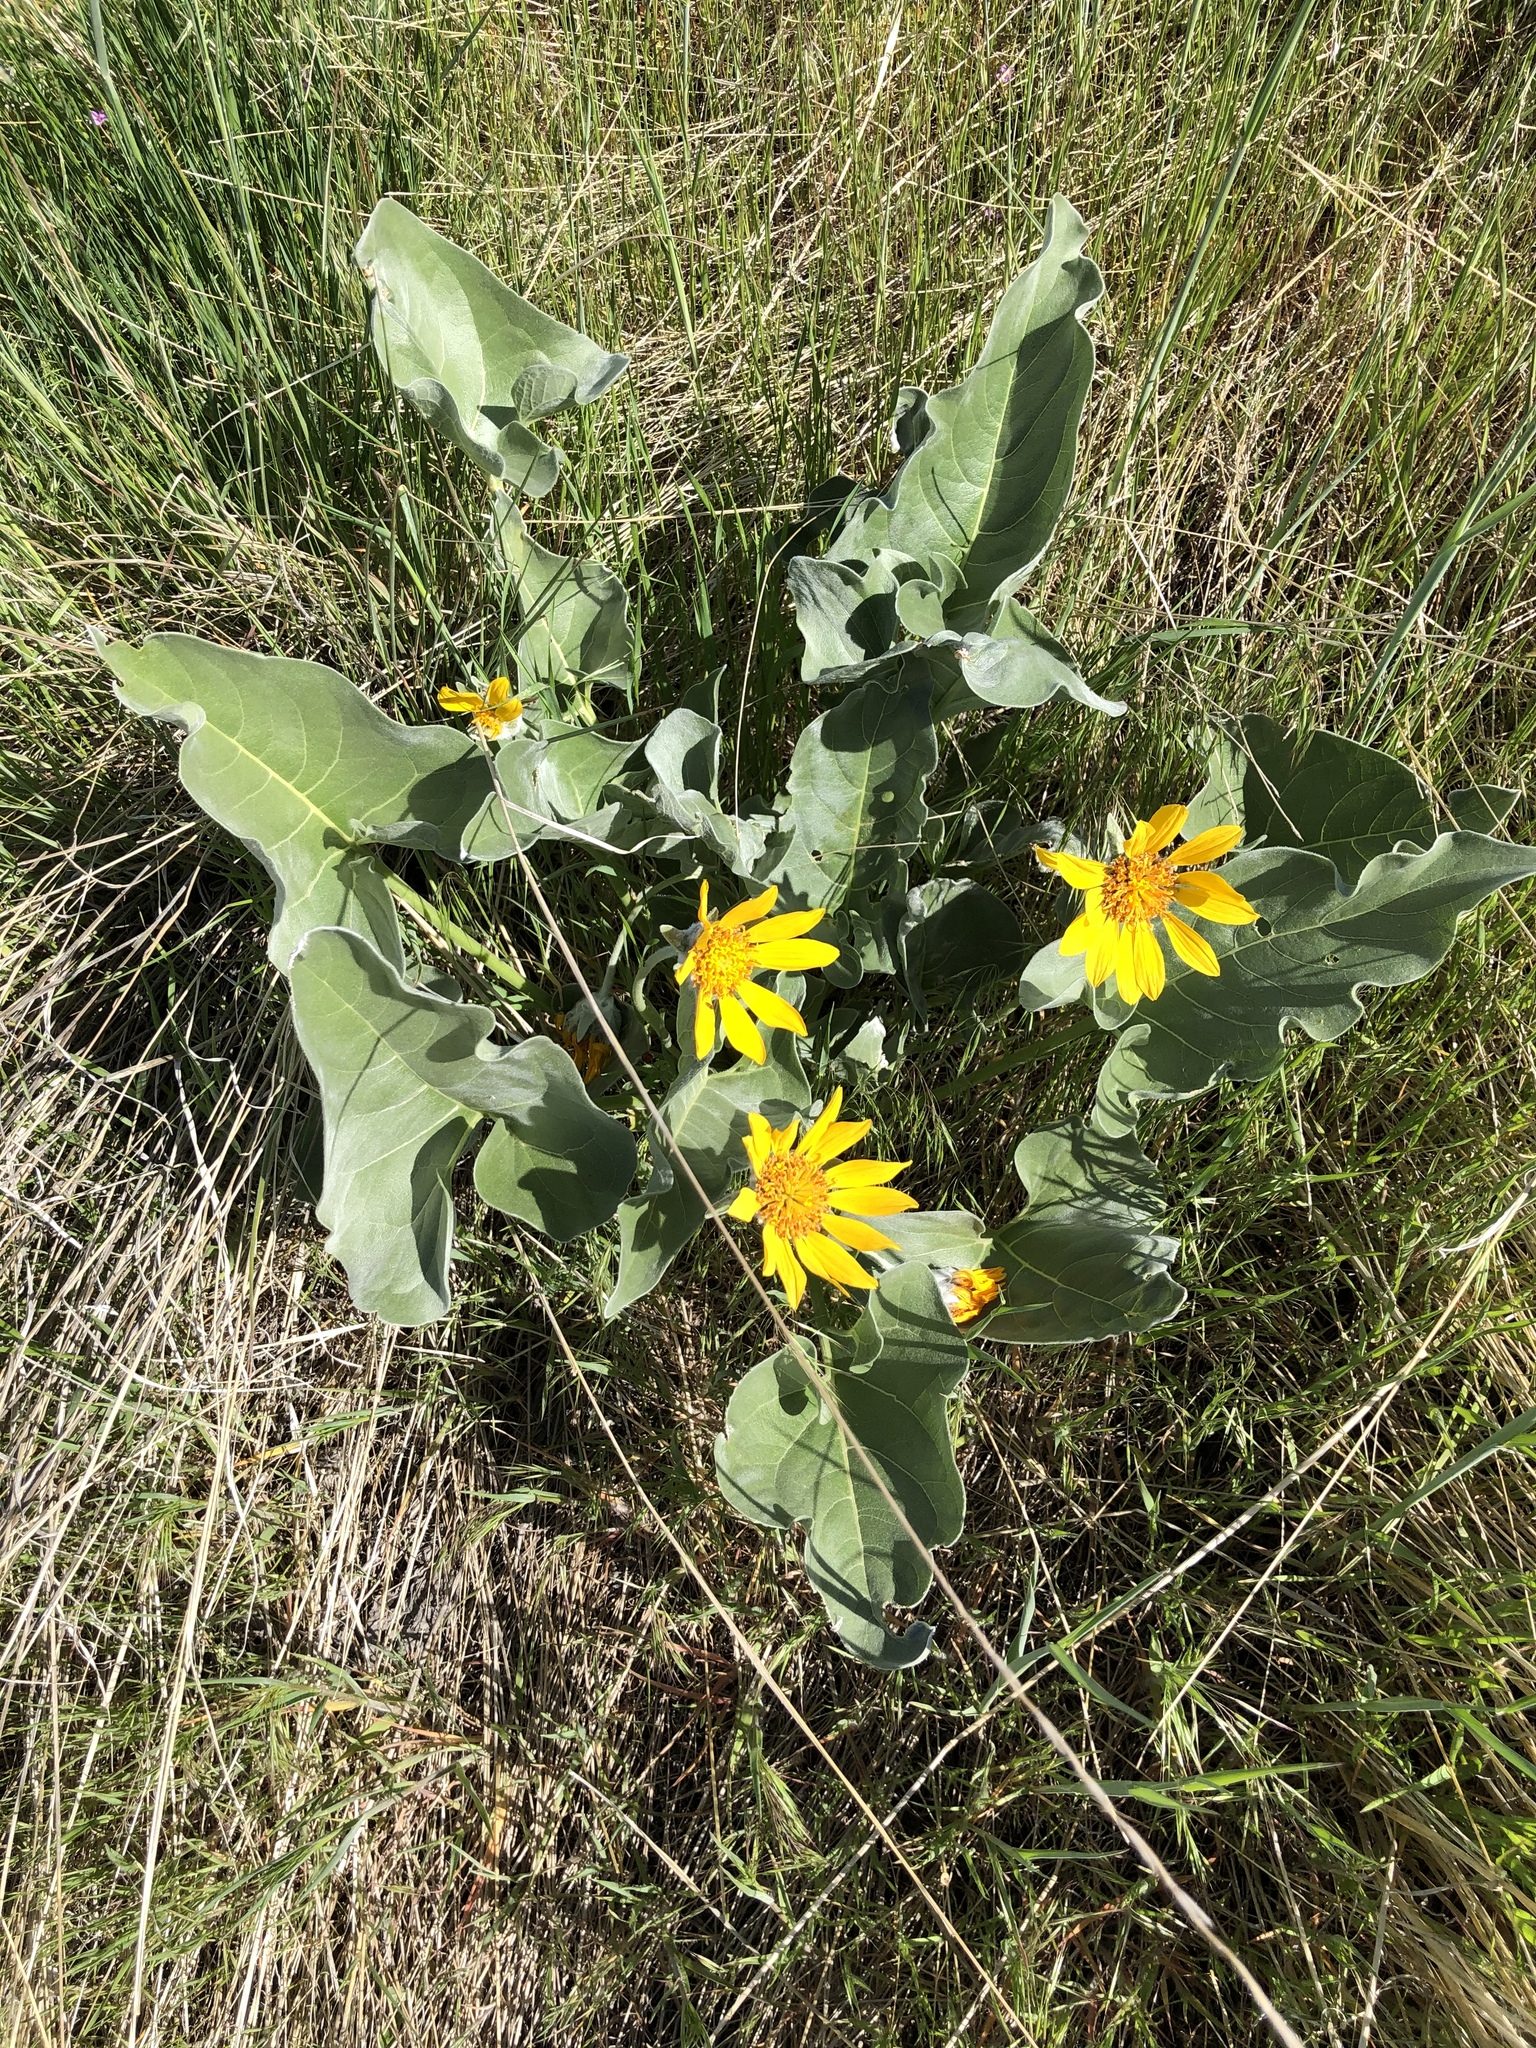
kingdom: Plantae
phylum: Tracheophyta
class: Magnoliopsida
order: Asterales
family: Asteraceae
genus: Wyethia
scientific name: Wyethia sagittata
